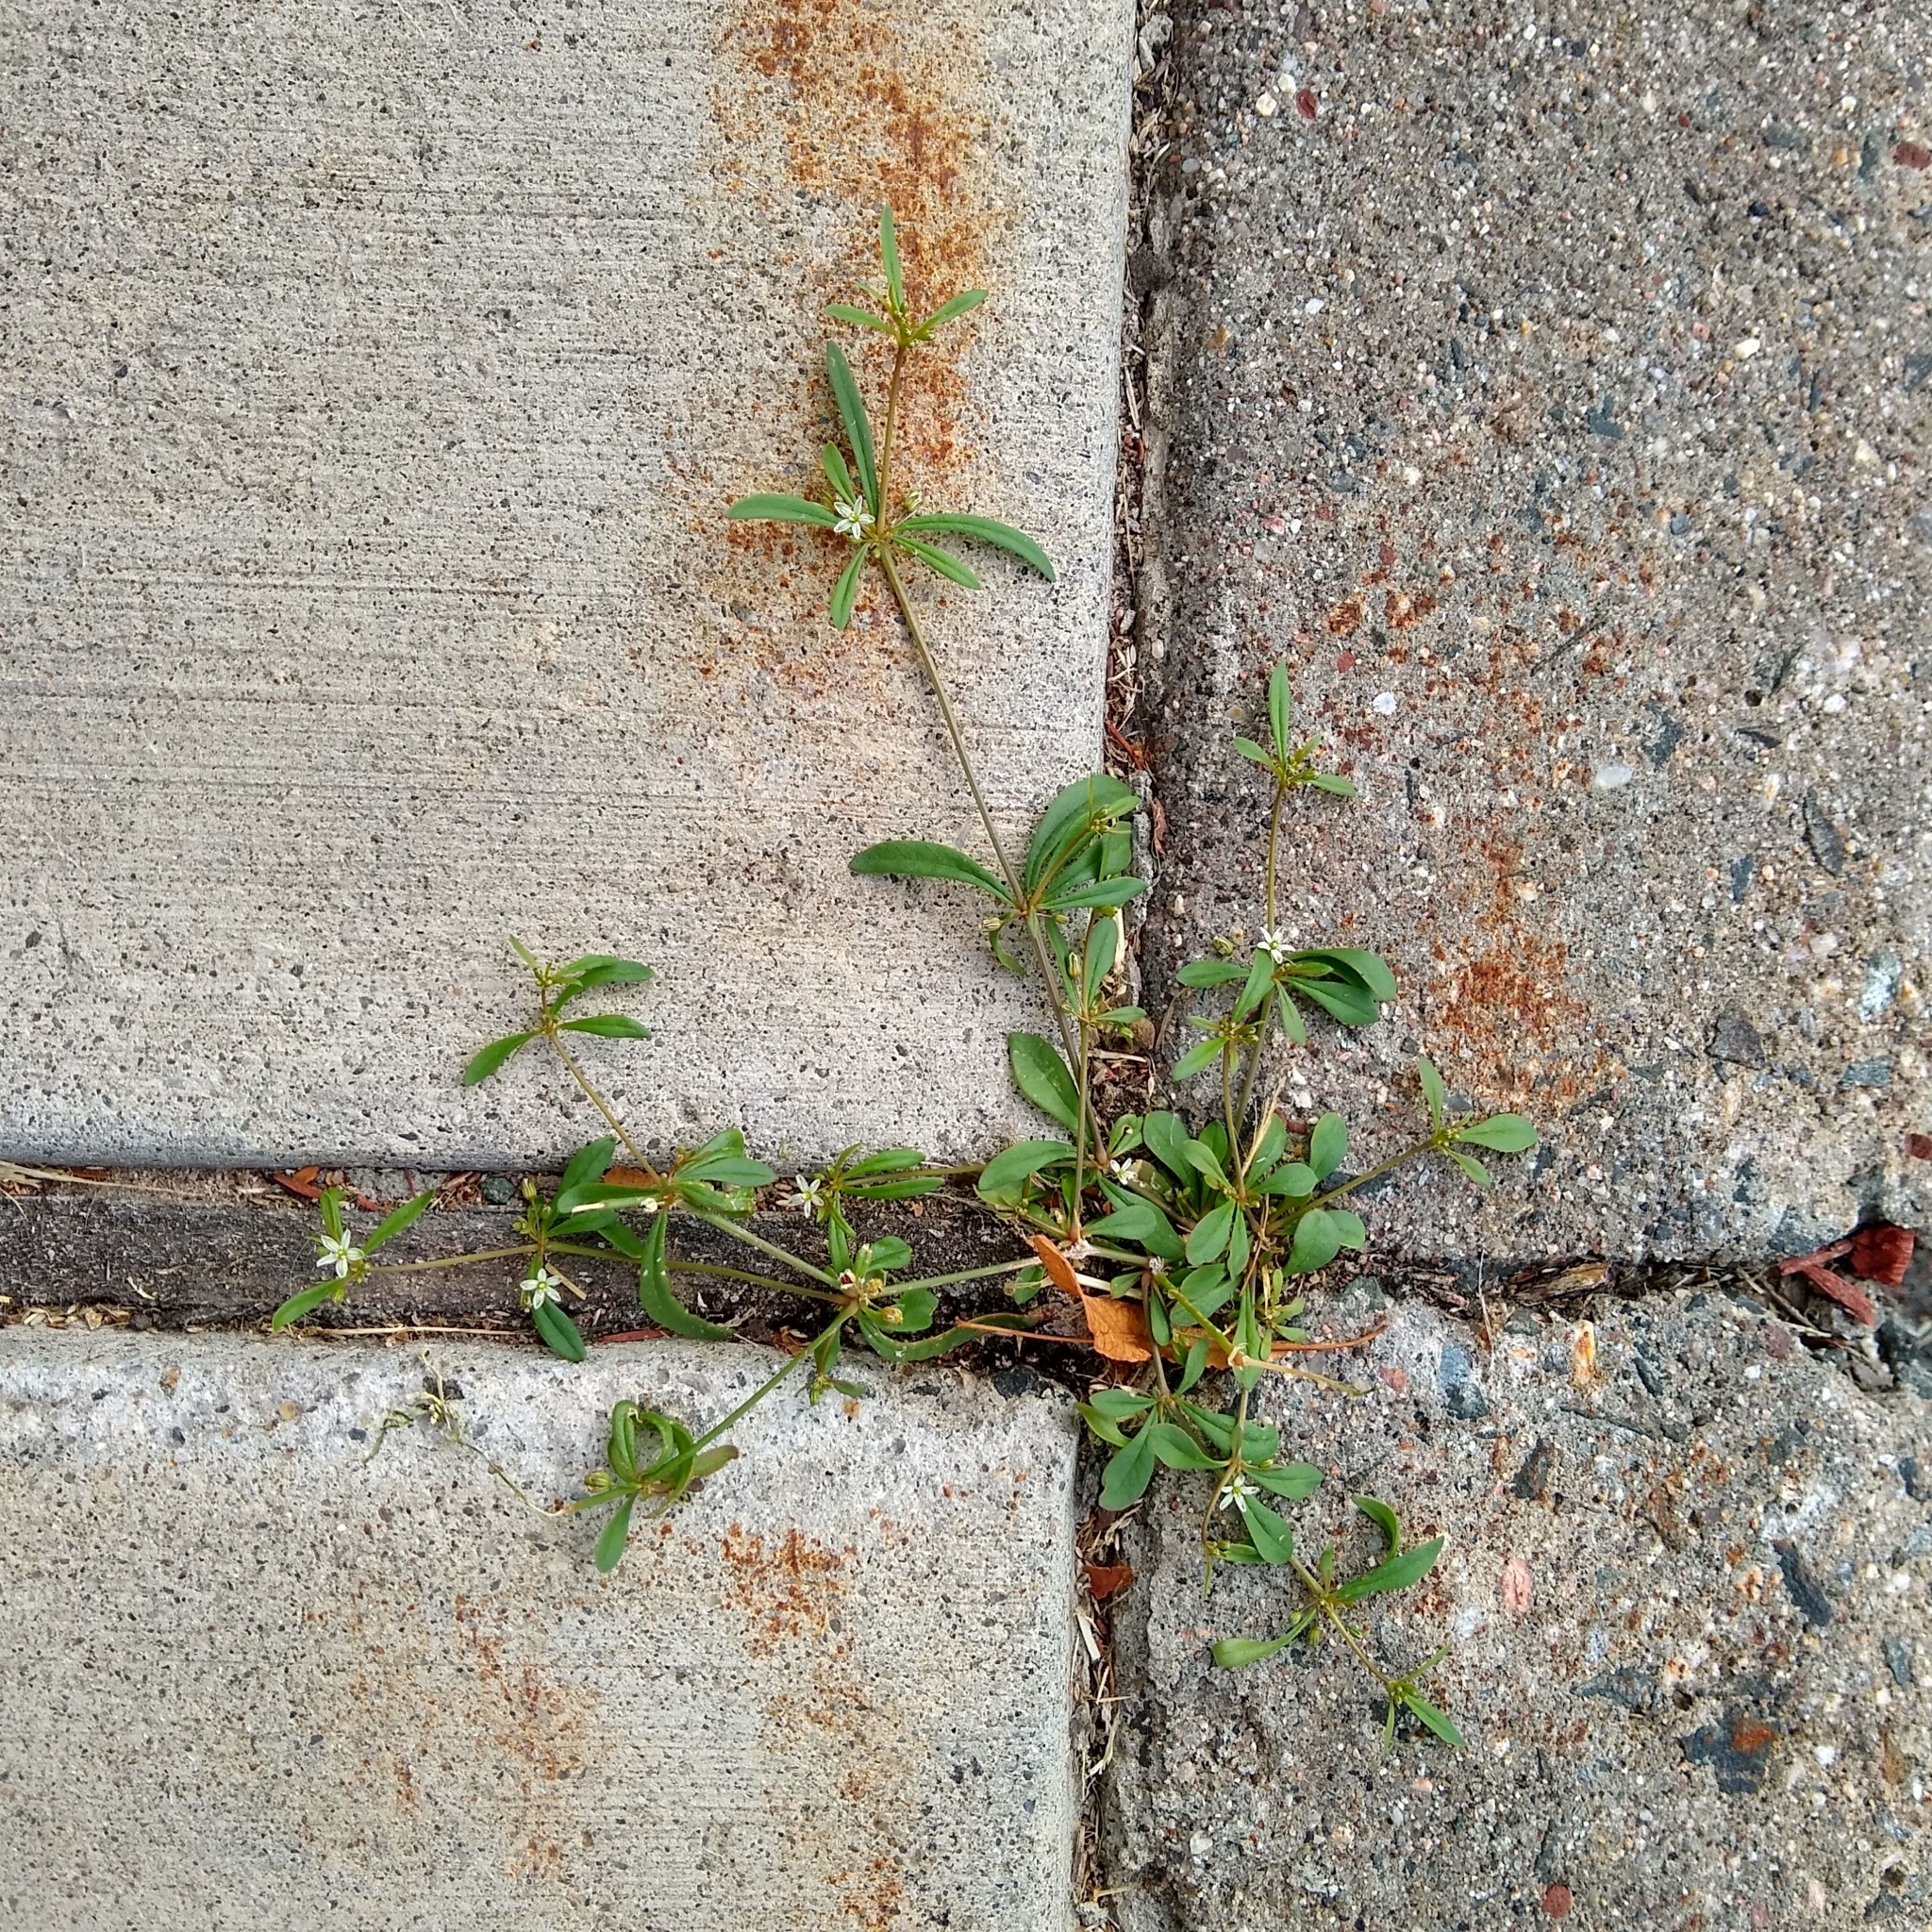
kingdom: Plantae
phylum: Tracheophyta
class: Magnoliopsida
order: Caryophyllales
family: Molluginaceae
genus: Mollugo
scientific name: Mollugo verticillata
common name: Green carpetweed
